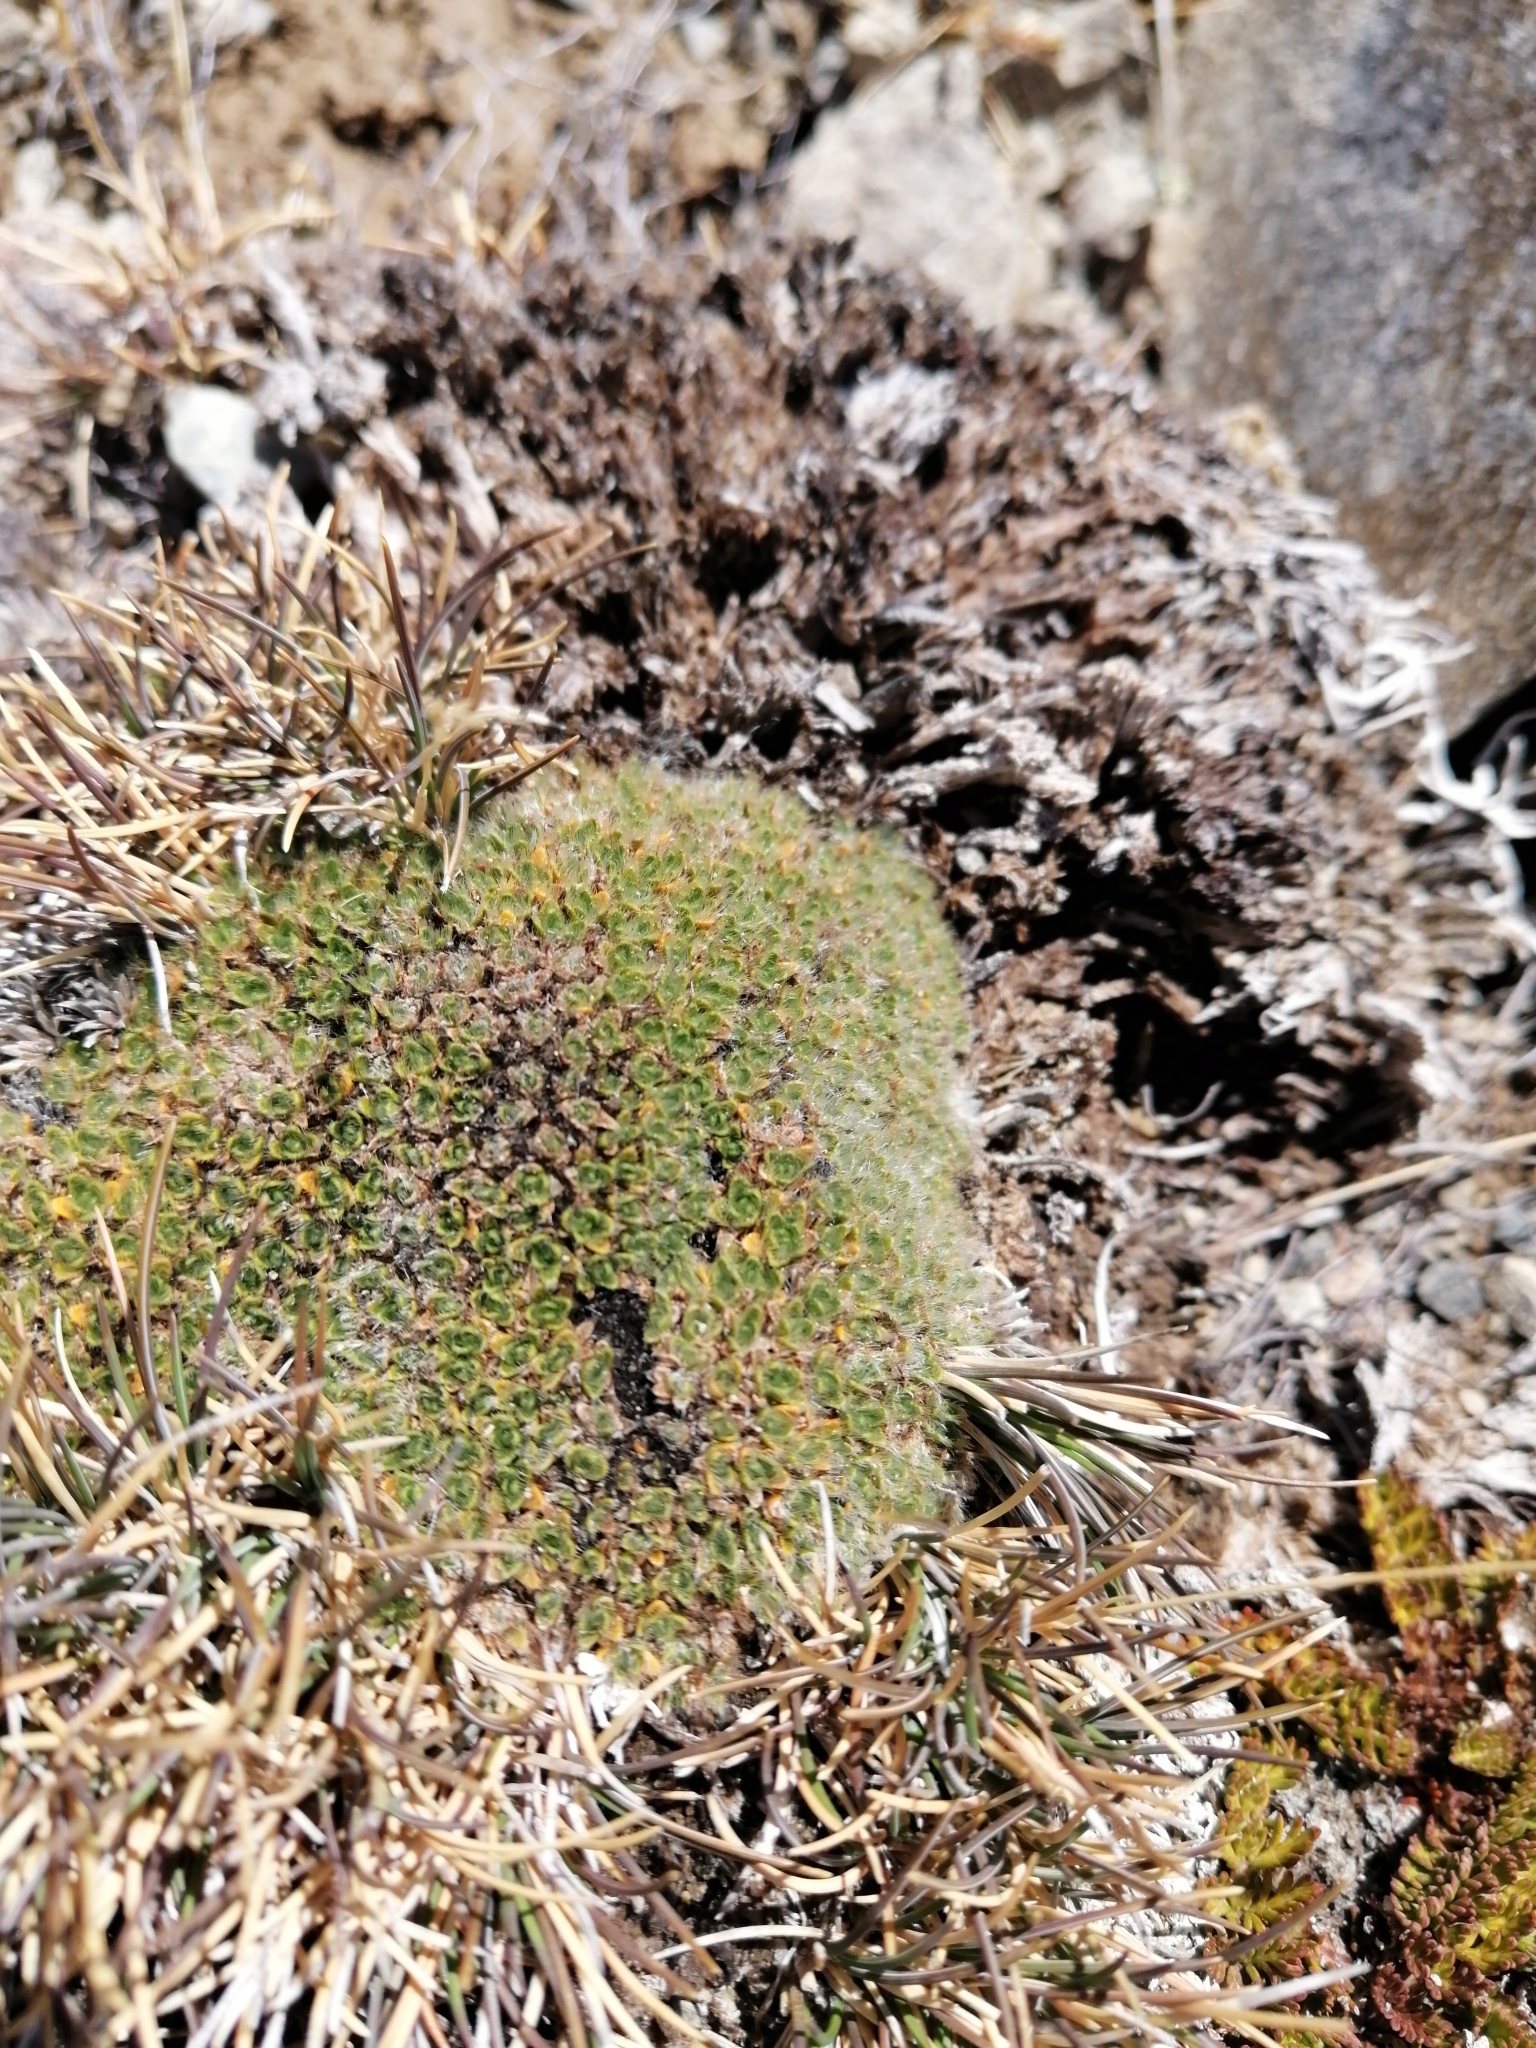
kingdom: Plantae
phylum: Tracheophyta
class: Magnoliopsida
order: Lamiales
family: Plantaginaceae
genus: Veronica
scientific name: Veronica pulvinaris
